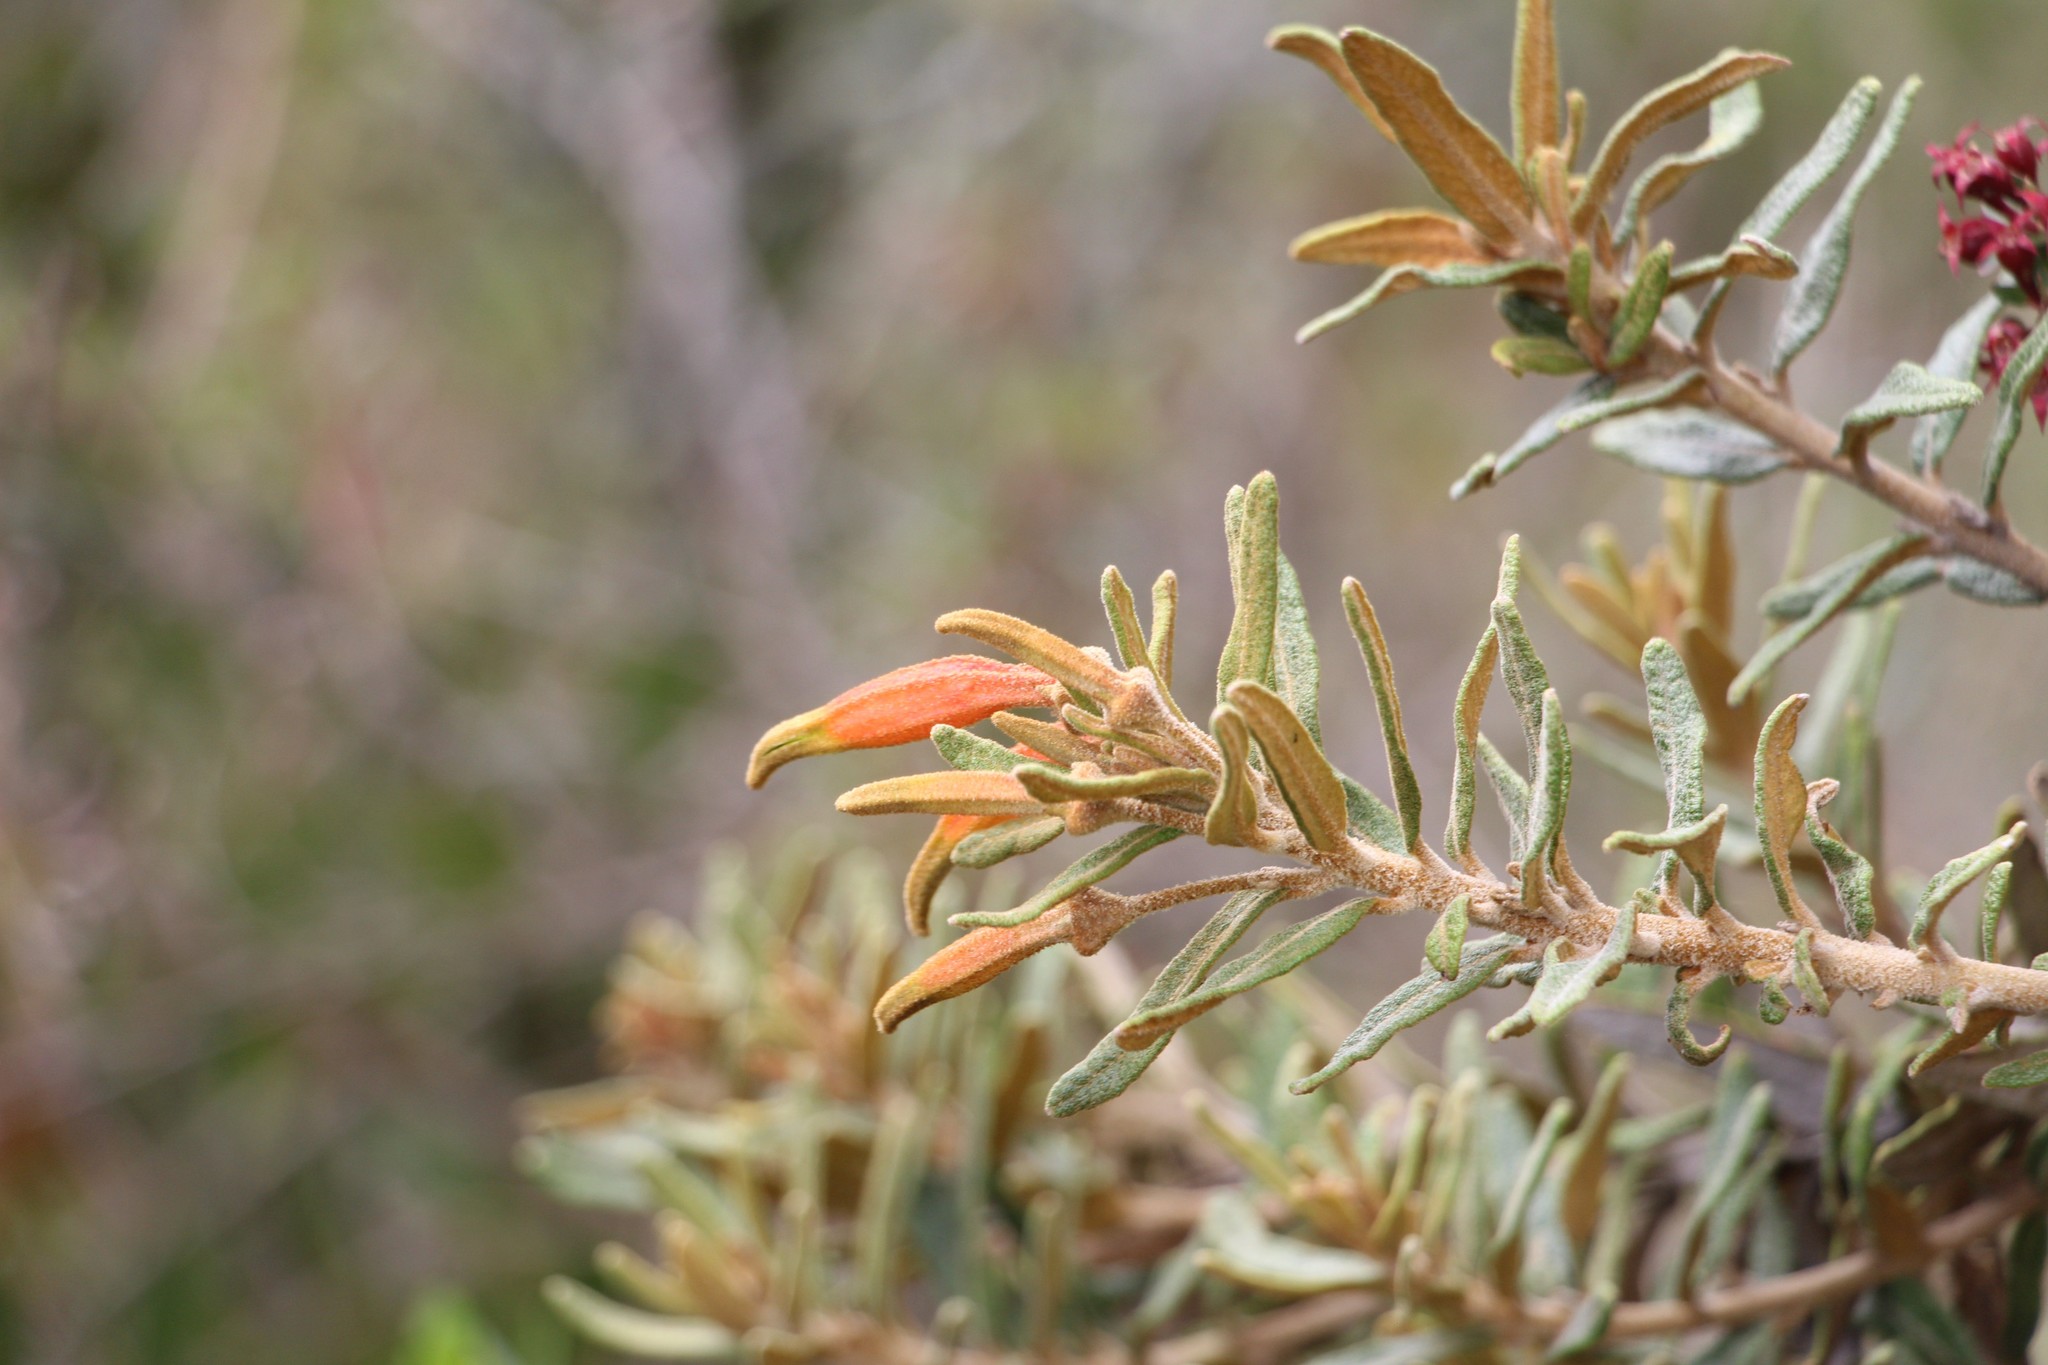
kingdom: Plantae
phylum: Tracheophyta
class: Magnoliopsida
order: Asterales
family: Campanulaceae
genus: Siphocampylus
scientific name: Siphocampylus columnae
